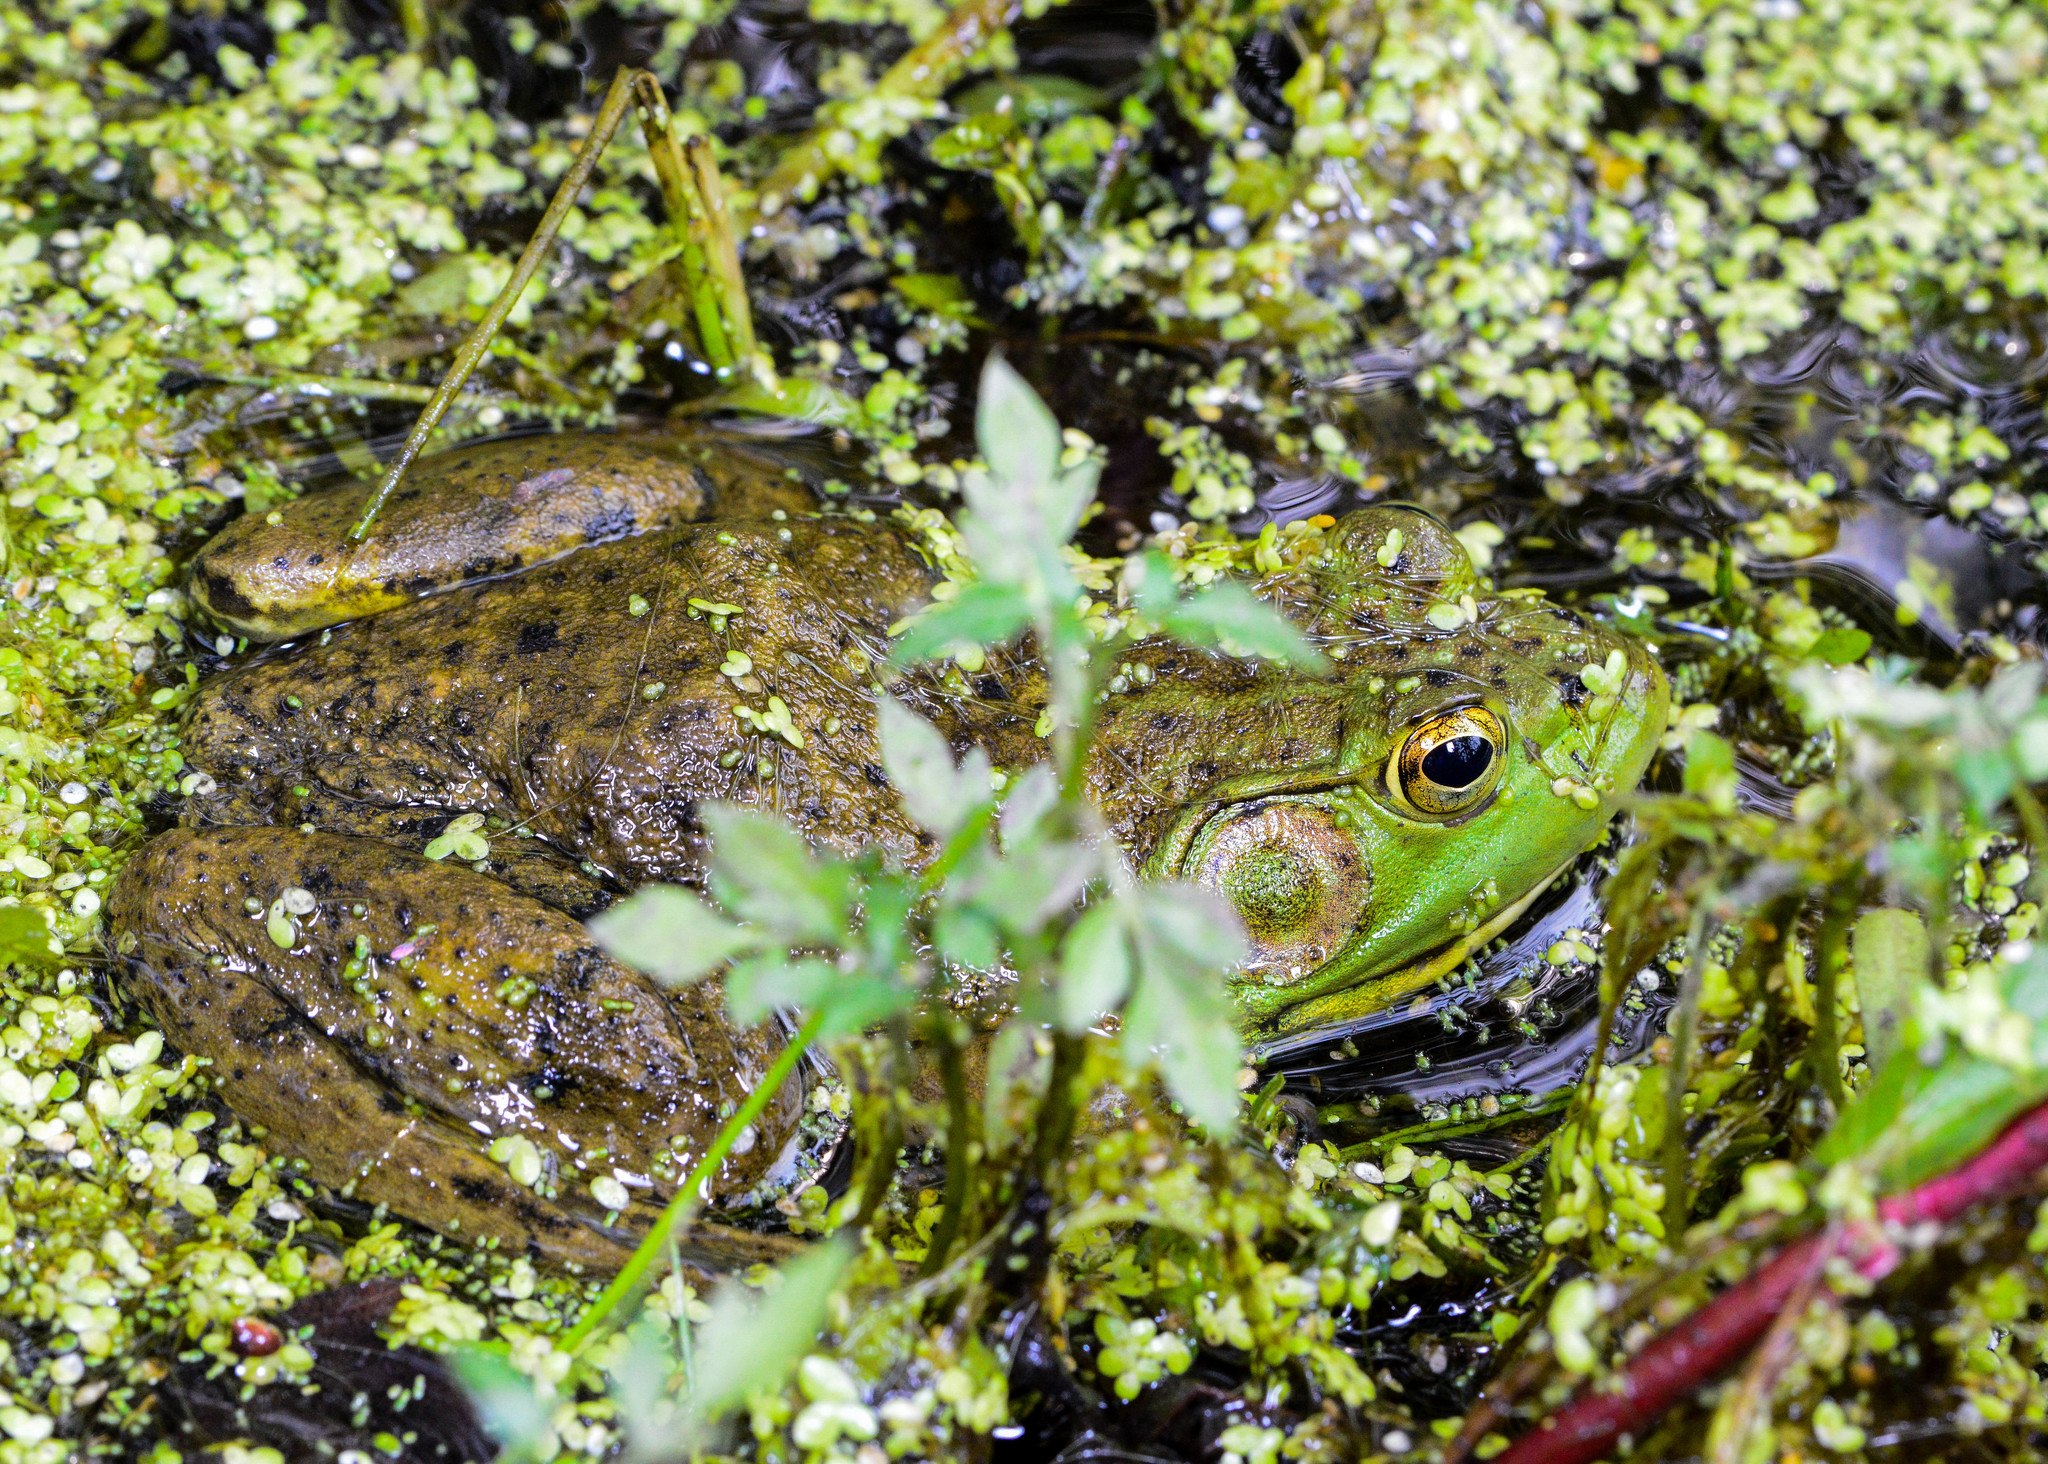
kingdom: Animalia
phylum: Chordata
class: Amphibia
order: Anura
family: Ranidae
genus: Lithobates
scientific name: Lithobates catesbeianus
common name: American bullfrog
